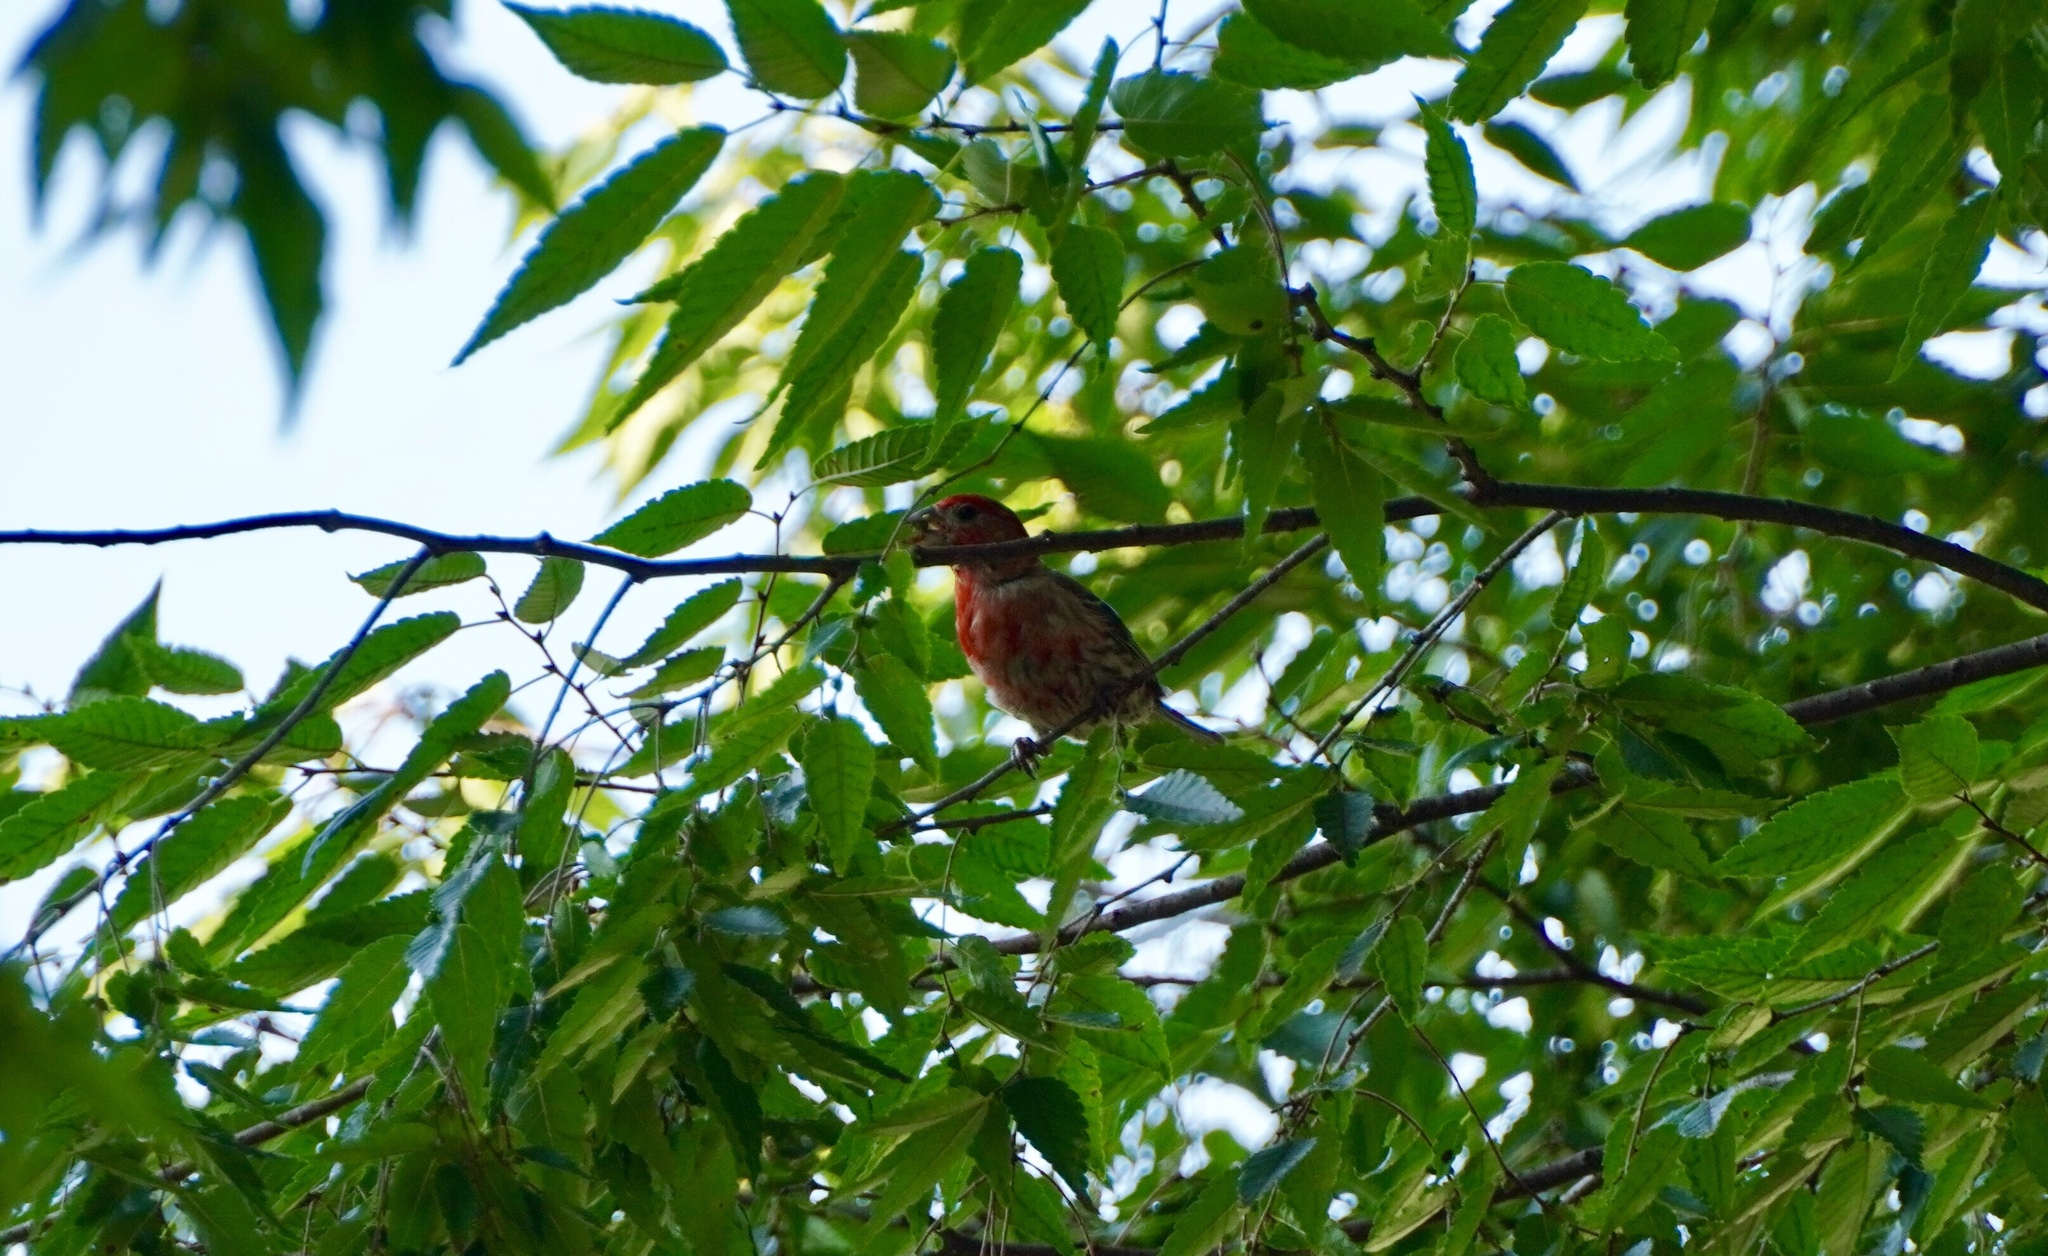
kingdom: Animalia
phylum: Chordata
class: Aves
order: Passeriformes
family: Fringillidae
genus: Haemorhous
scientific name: Haemorhous mexicanus
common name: House finch
